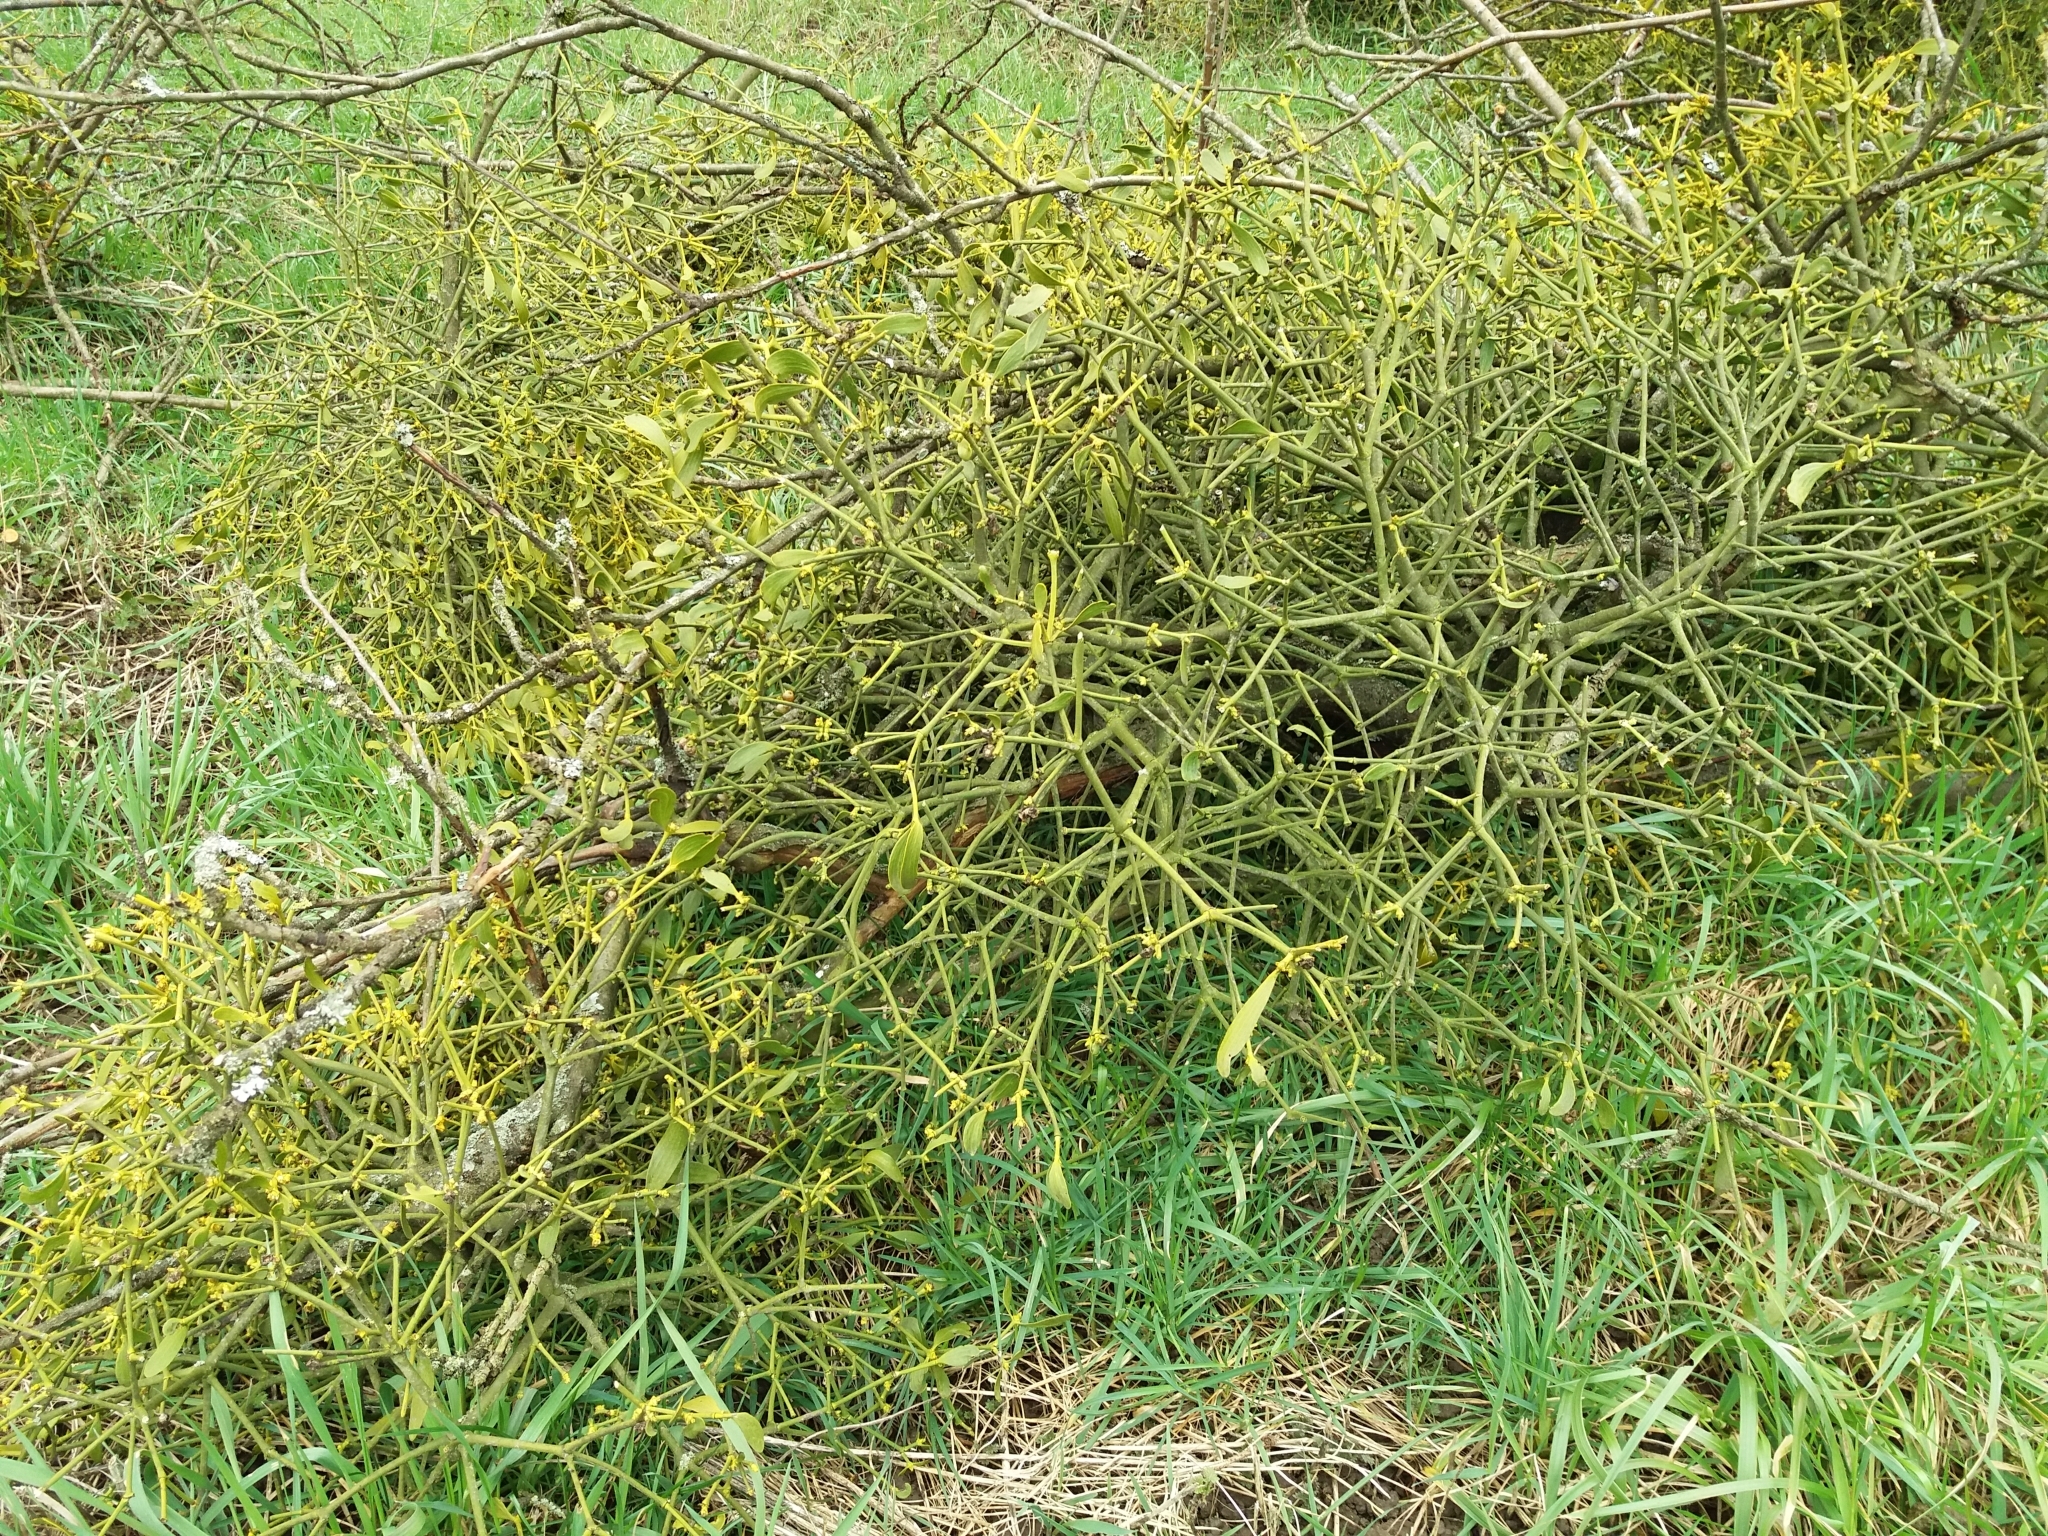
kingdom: Plantae
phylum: Tracheophyta
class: Magnoliopsida
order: Santalales
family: Viscaceae
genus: Viscum
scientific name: Viscum album
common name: Mistletoe
